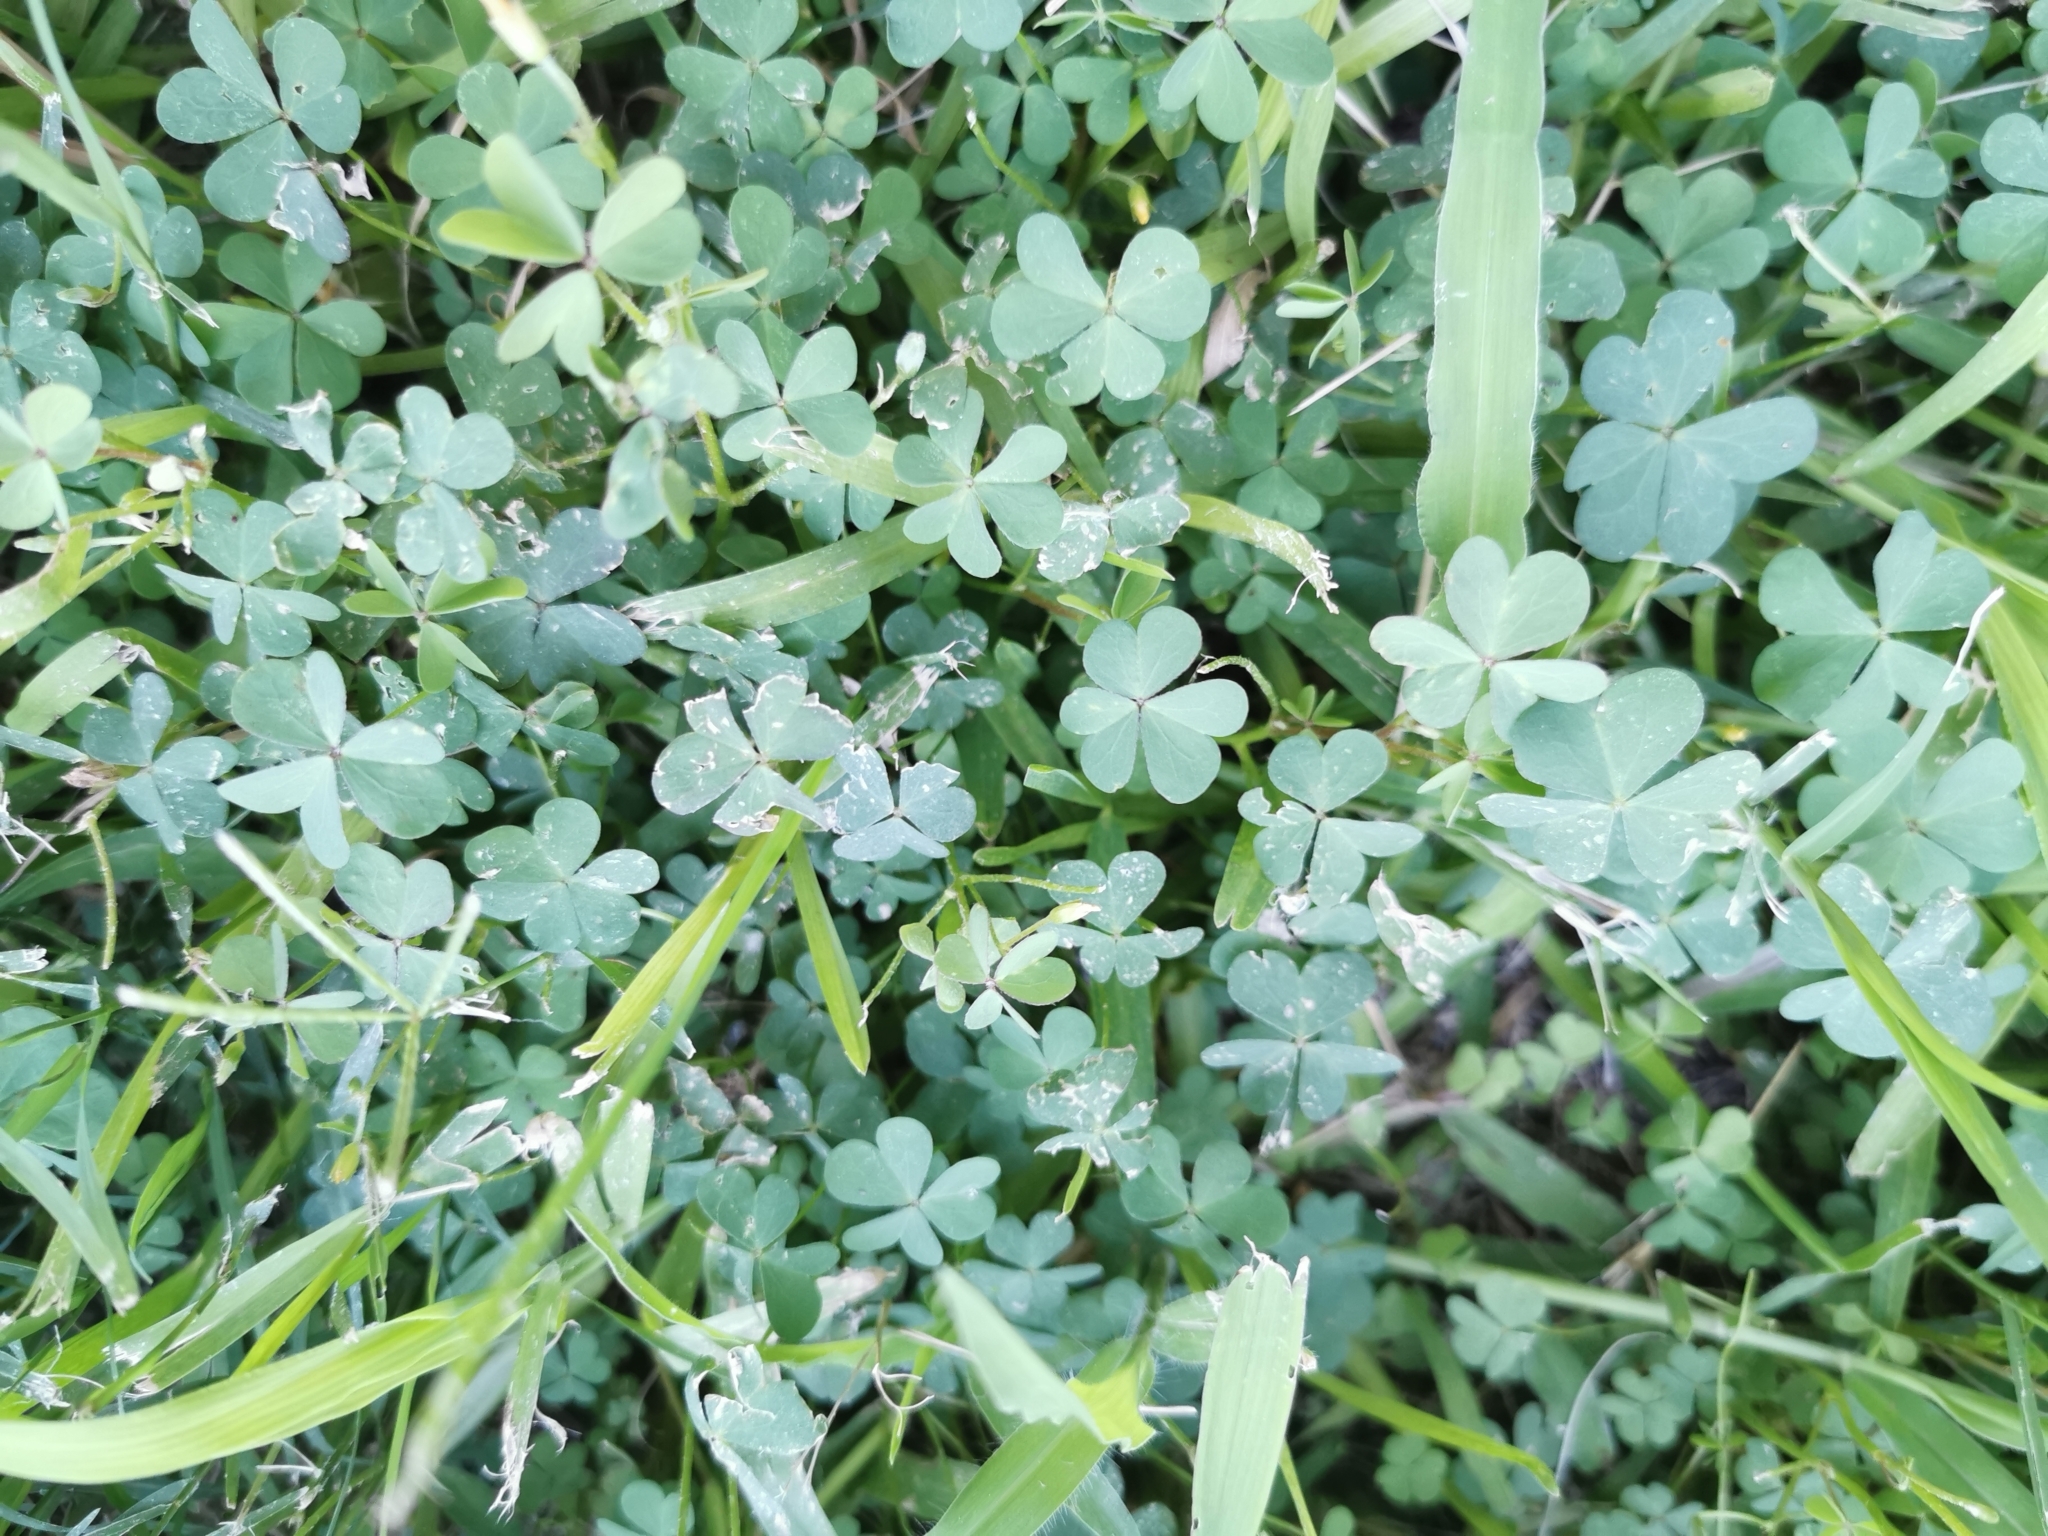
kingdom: Plantae
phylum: Tracheophyta
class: Magnoliopsida
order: Oxalidales
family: Oxalidaceae
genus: Oxalis
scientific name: Oxalis corniculata
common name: Procumbent yellow-sorrel
